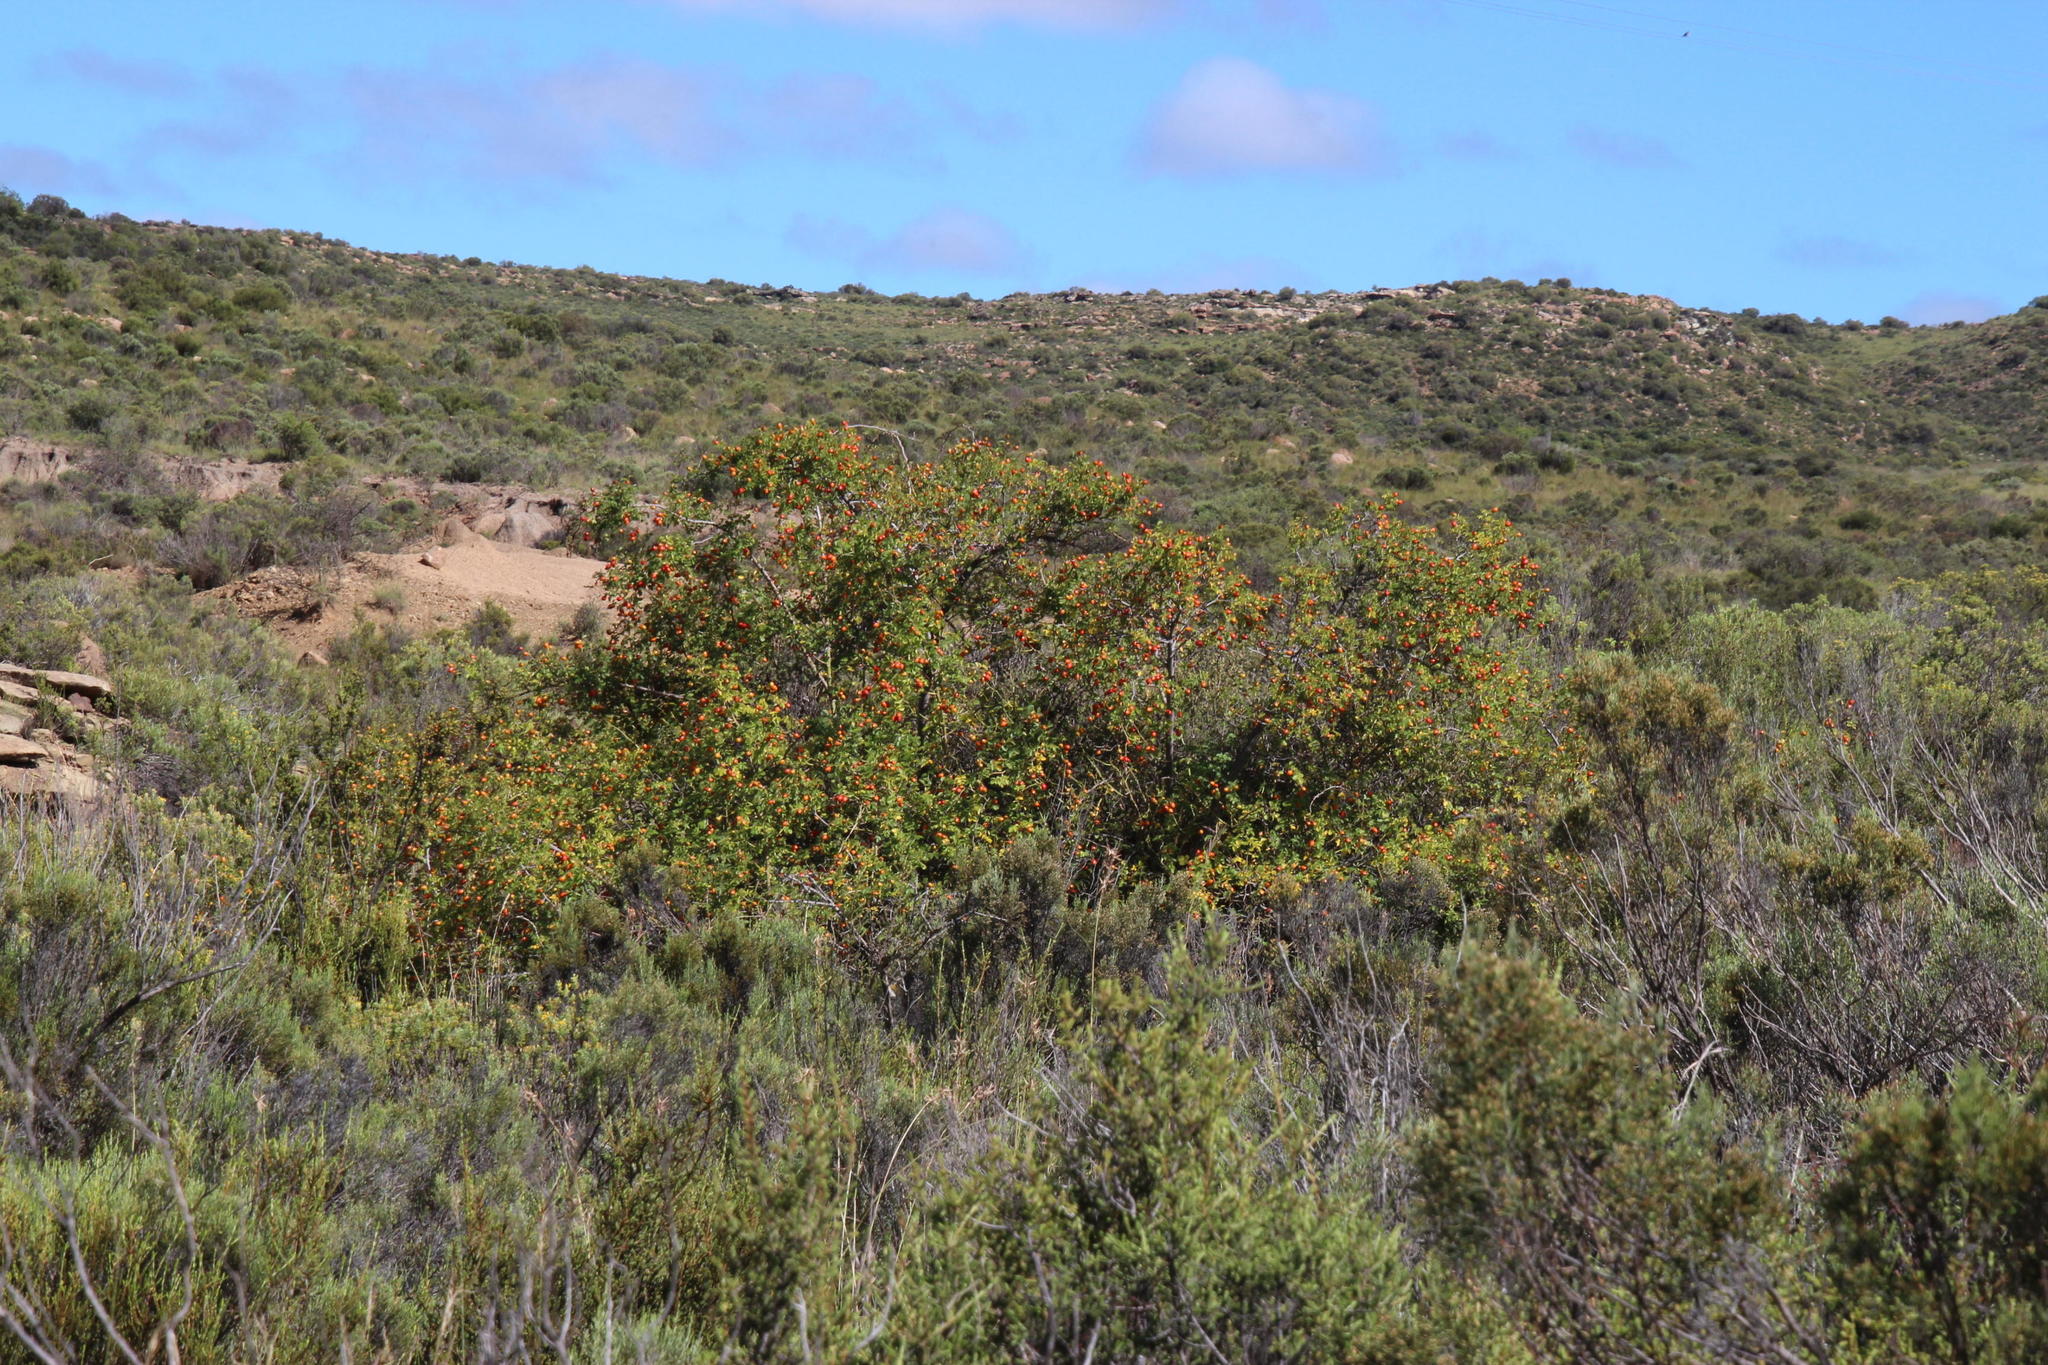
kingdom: Plantae
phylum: Tracheophyta
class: Magnoliopsida
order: Rosales
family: Rosaceae
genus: Rosa
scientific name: Rosa rubiginosa
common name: Sweet-briar
